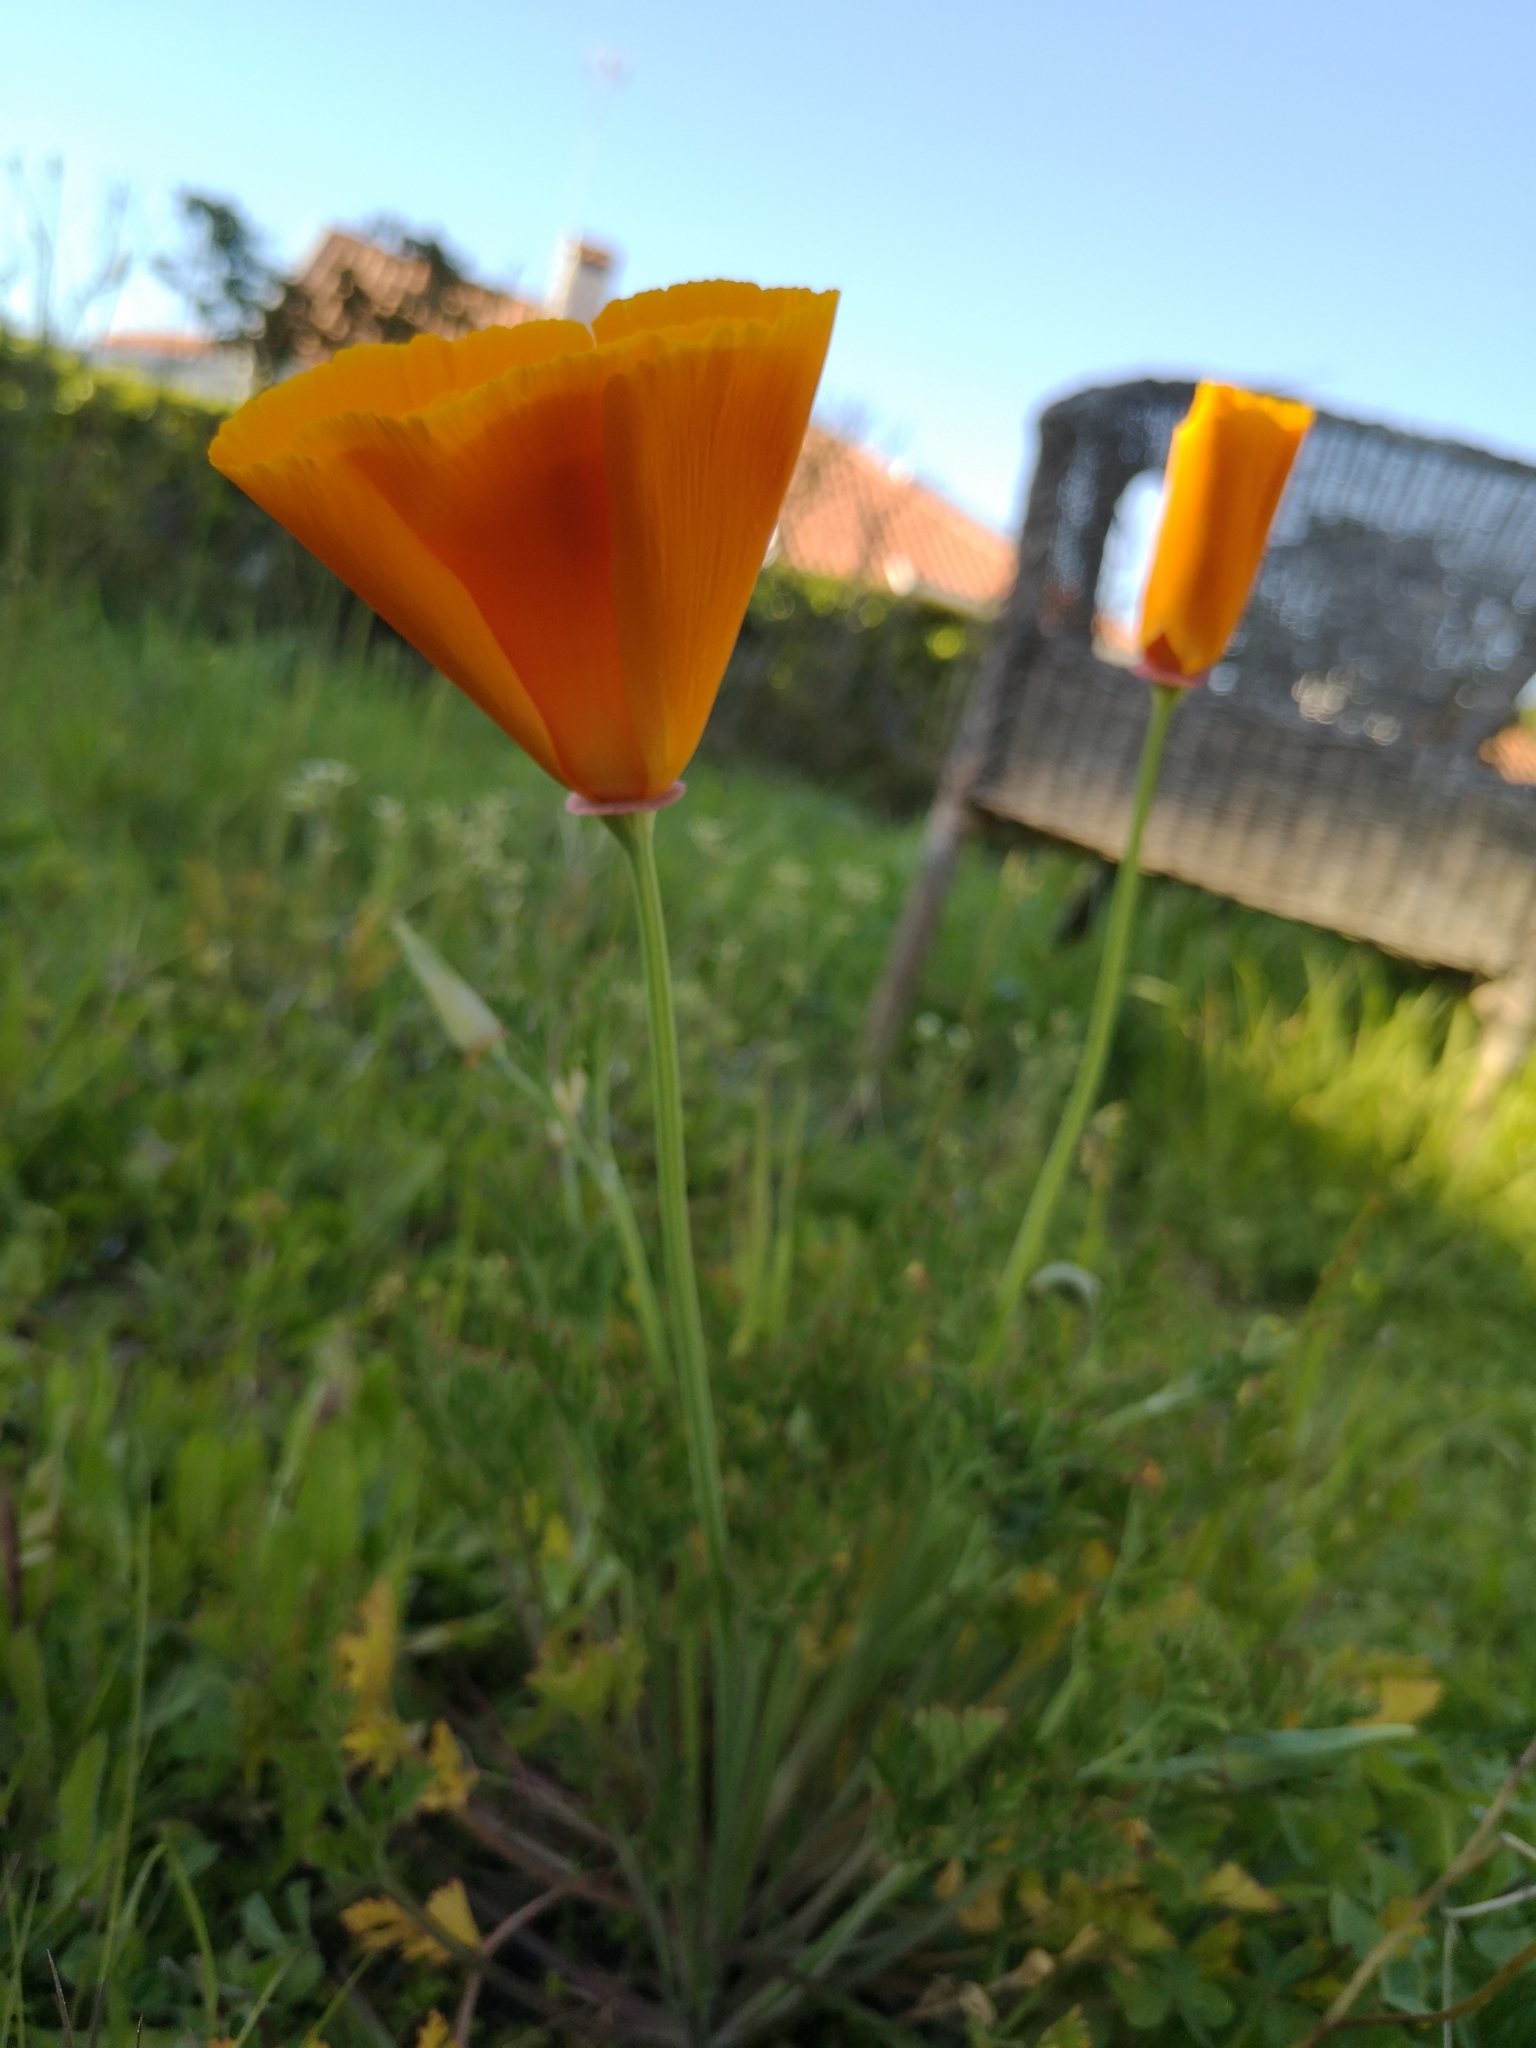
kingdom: Plantae
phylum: Tracheophyta
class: Magnoliopsida
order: Ranunculales
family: Papaveraceae
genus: Eschscholzia
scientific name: Eschscholzia californica
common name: California poppy
